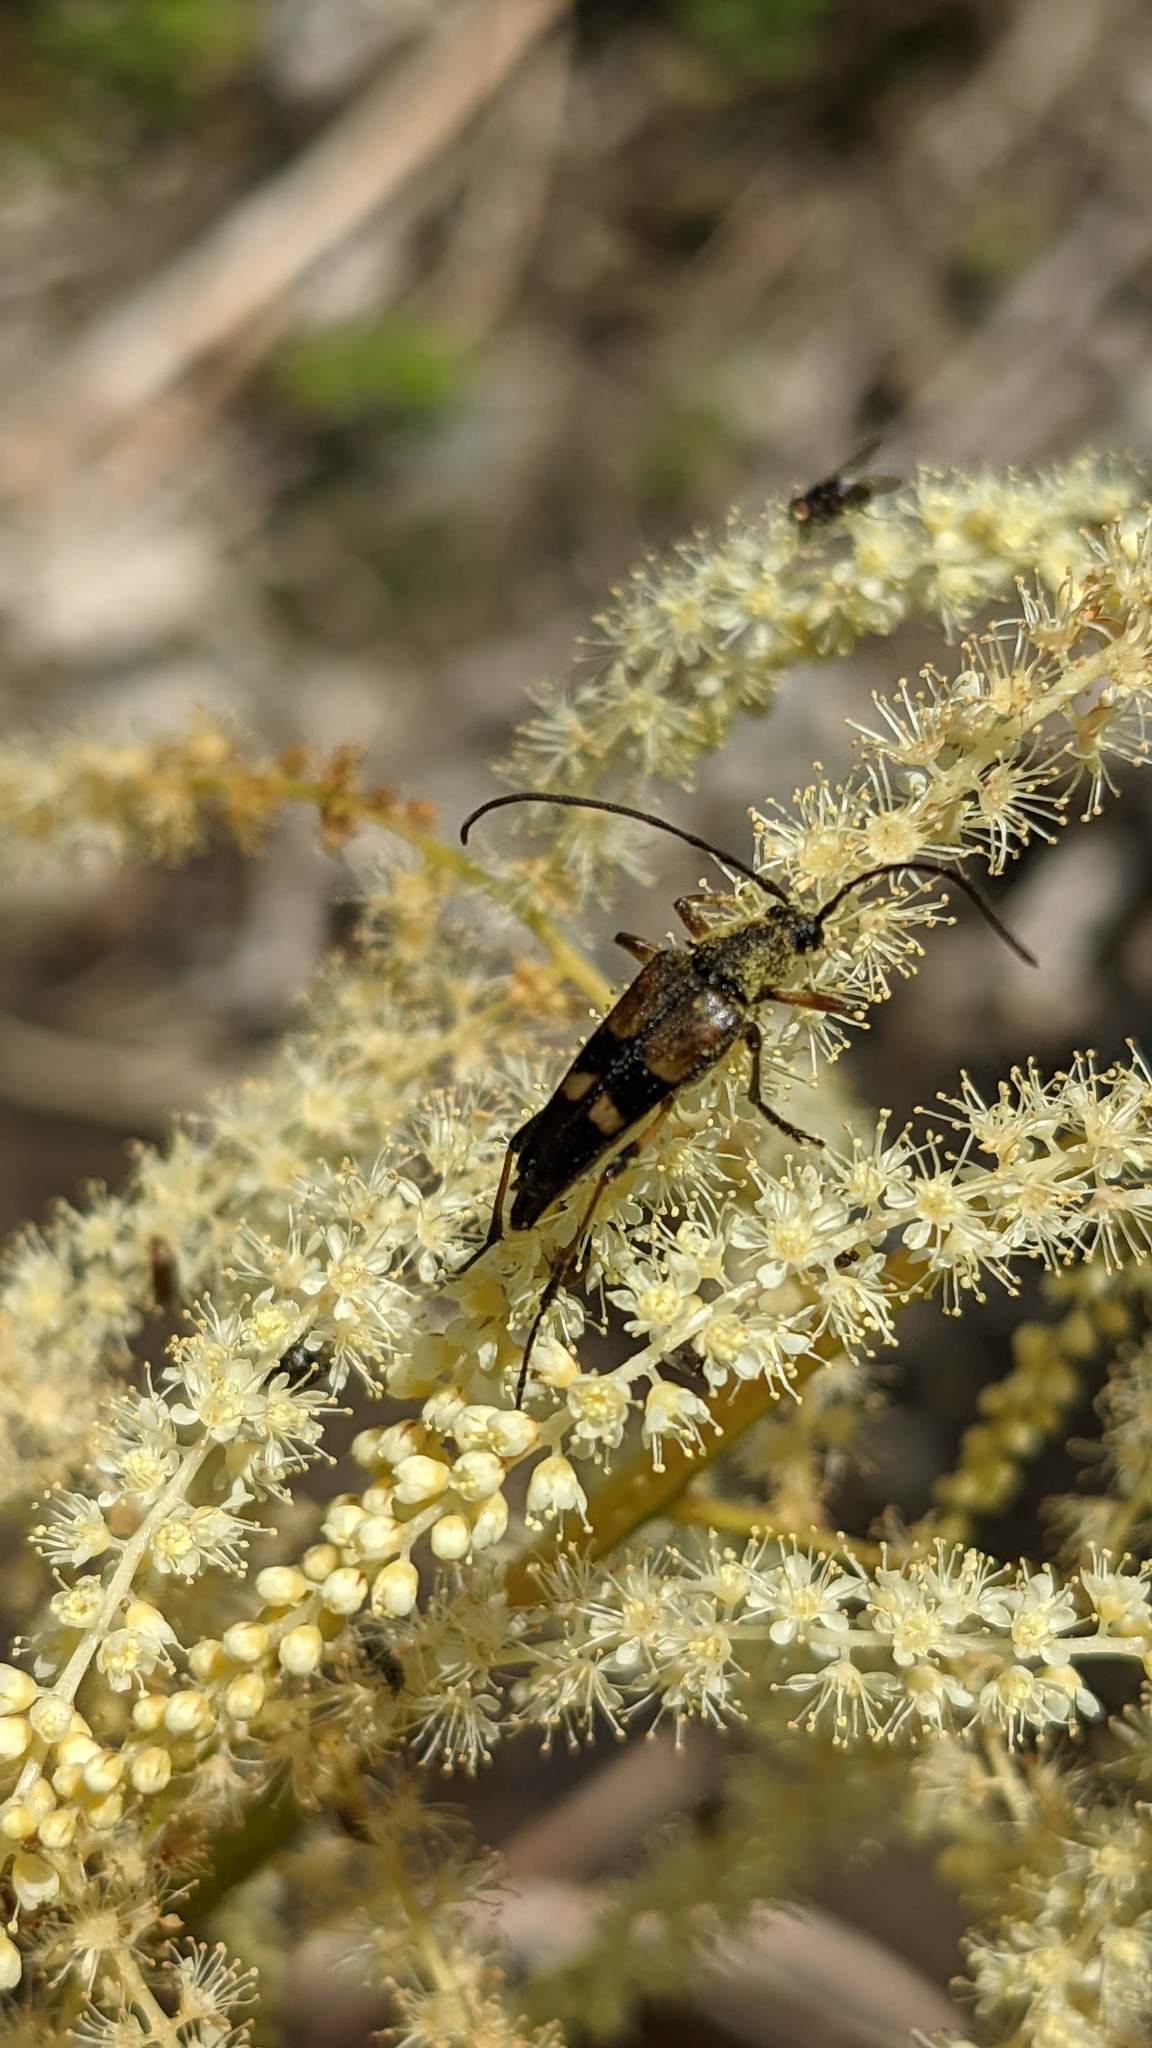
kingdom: Animalia
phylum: Arthropoda
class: Insecta
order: Coleoptera
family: Cerambycidae
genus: Etorofus
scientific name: Etorofus obliteratus
